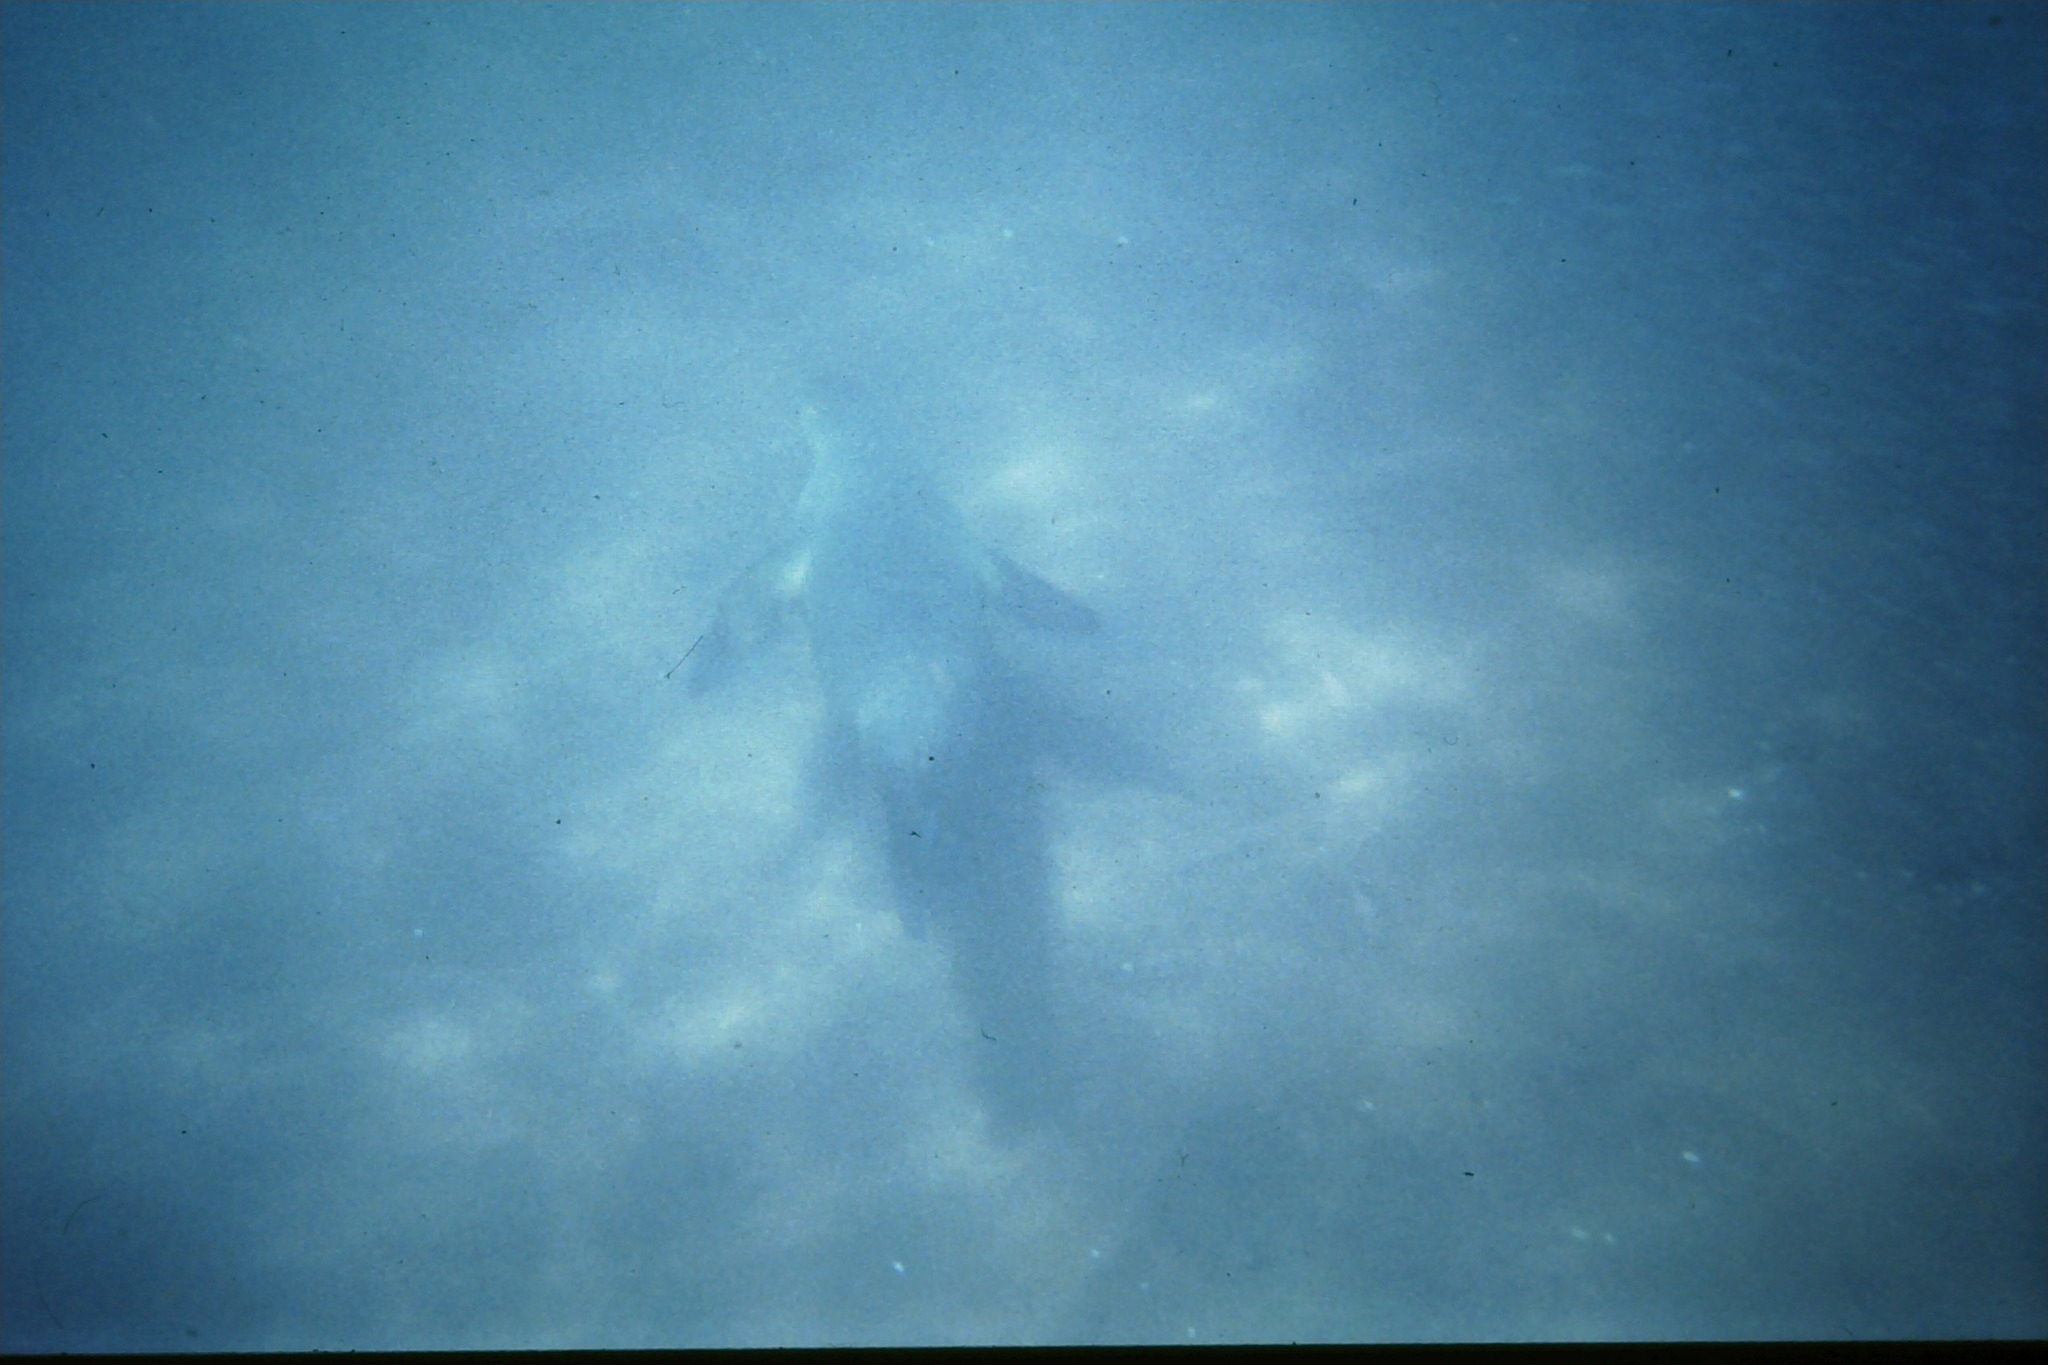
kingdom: Animalia
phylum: Chordata
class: Mammalia
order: Carnivora
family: Otariidae
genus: Zalophus
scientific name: Zalophus wollebaeki
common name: Galapagos sea lion
